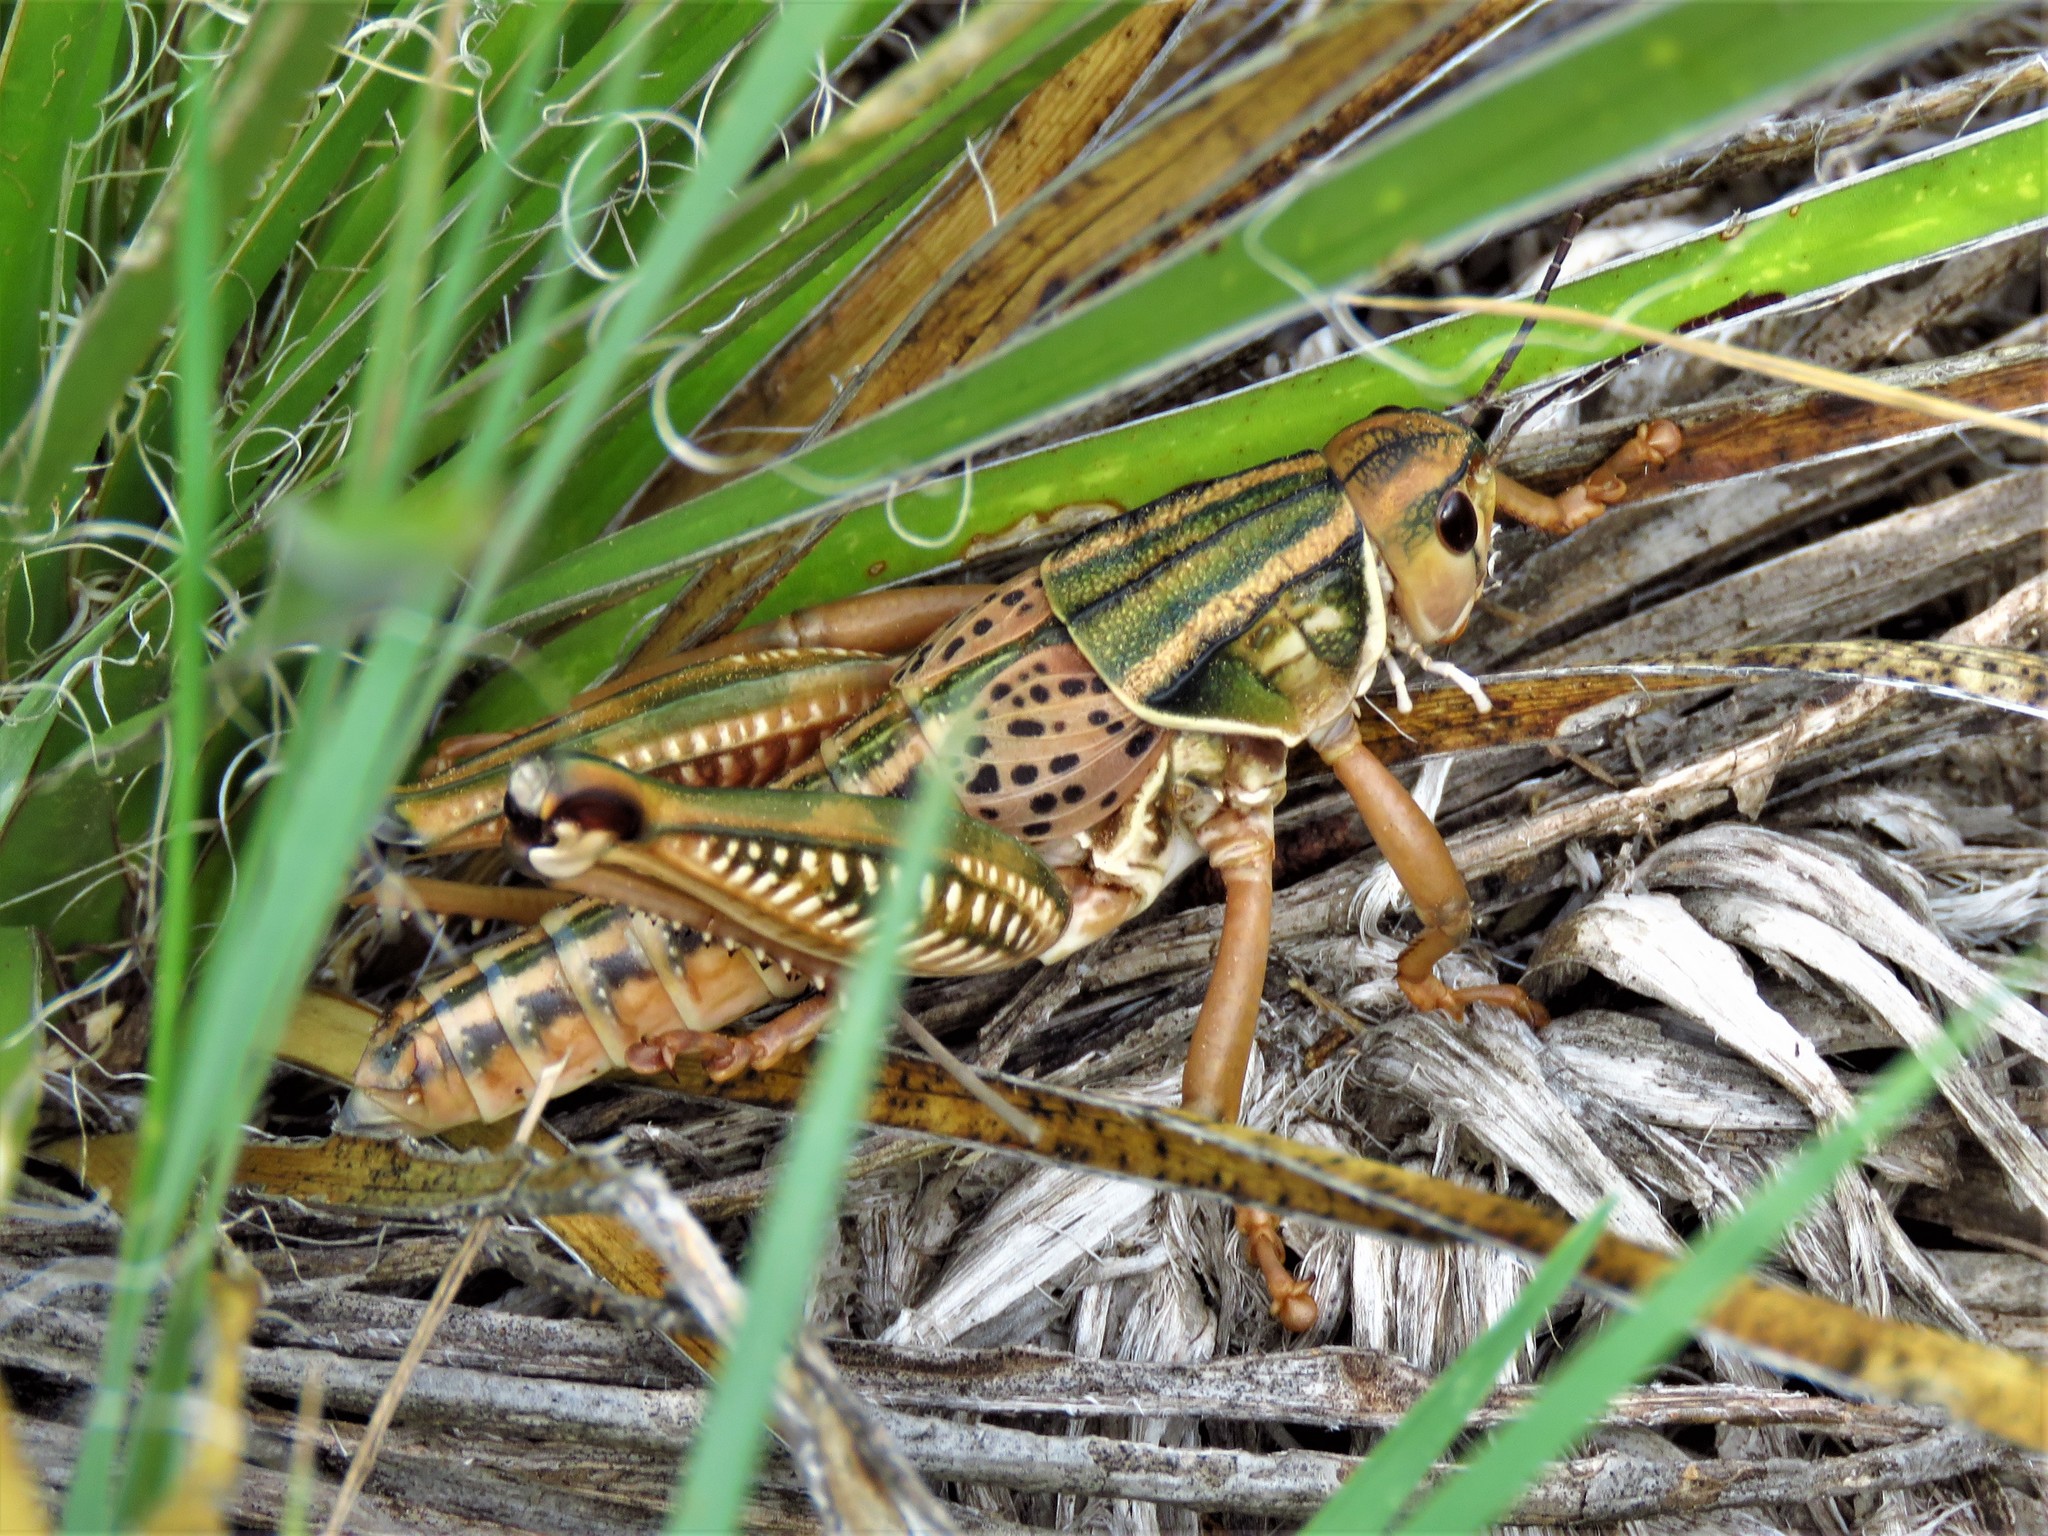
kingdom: Animalia
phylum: Arthropoda
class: Insecta
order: Orthoptera
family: Romaleidae
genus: Brachystola
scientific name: Brachystola magna
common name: Plains lubber grasshopper
